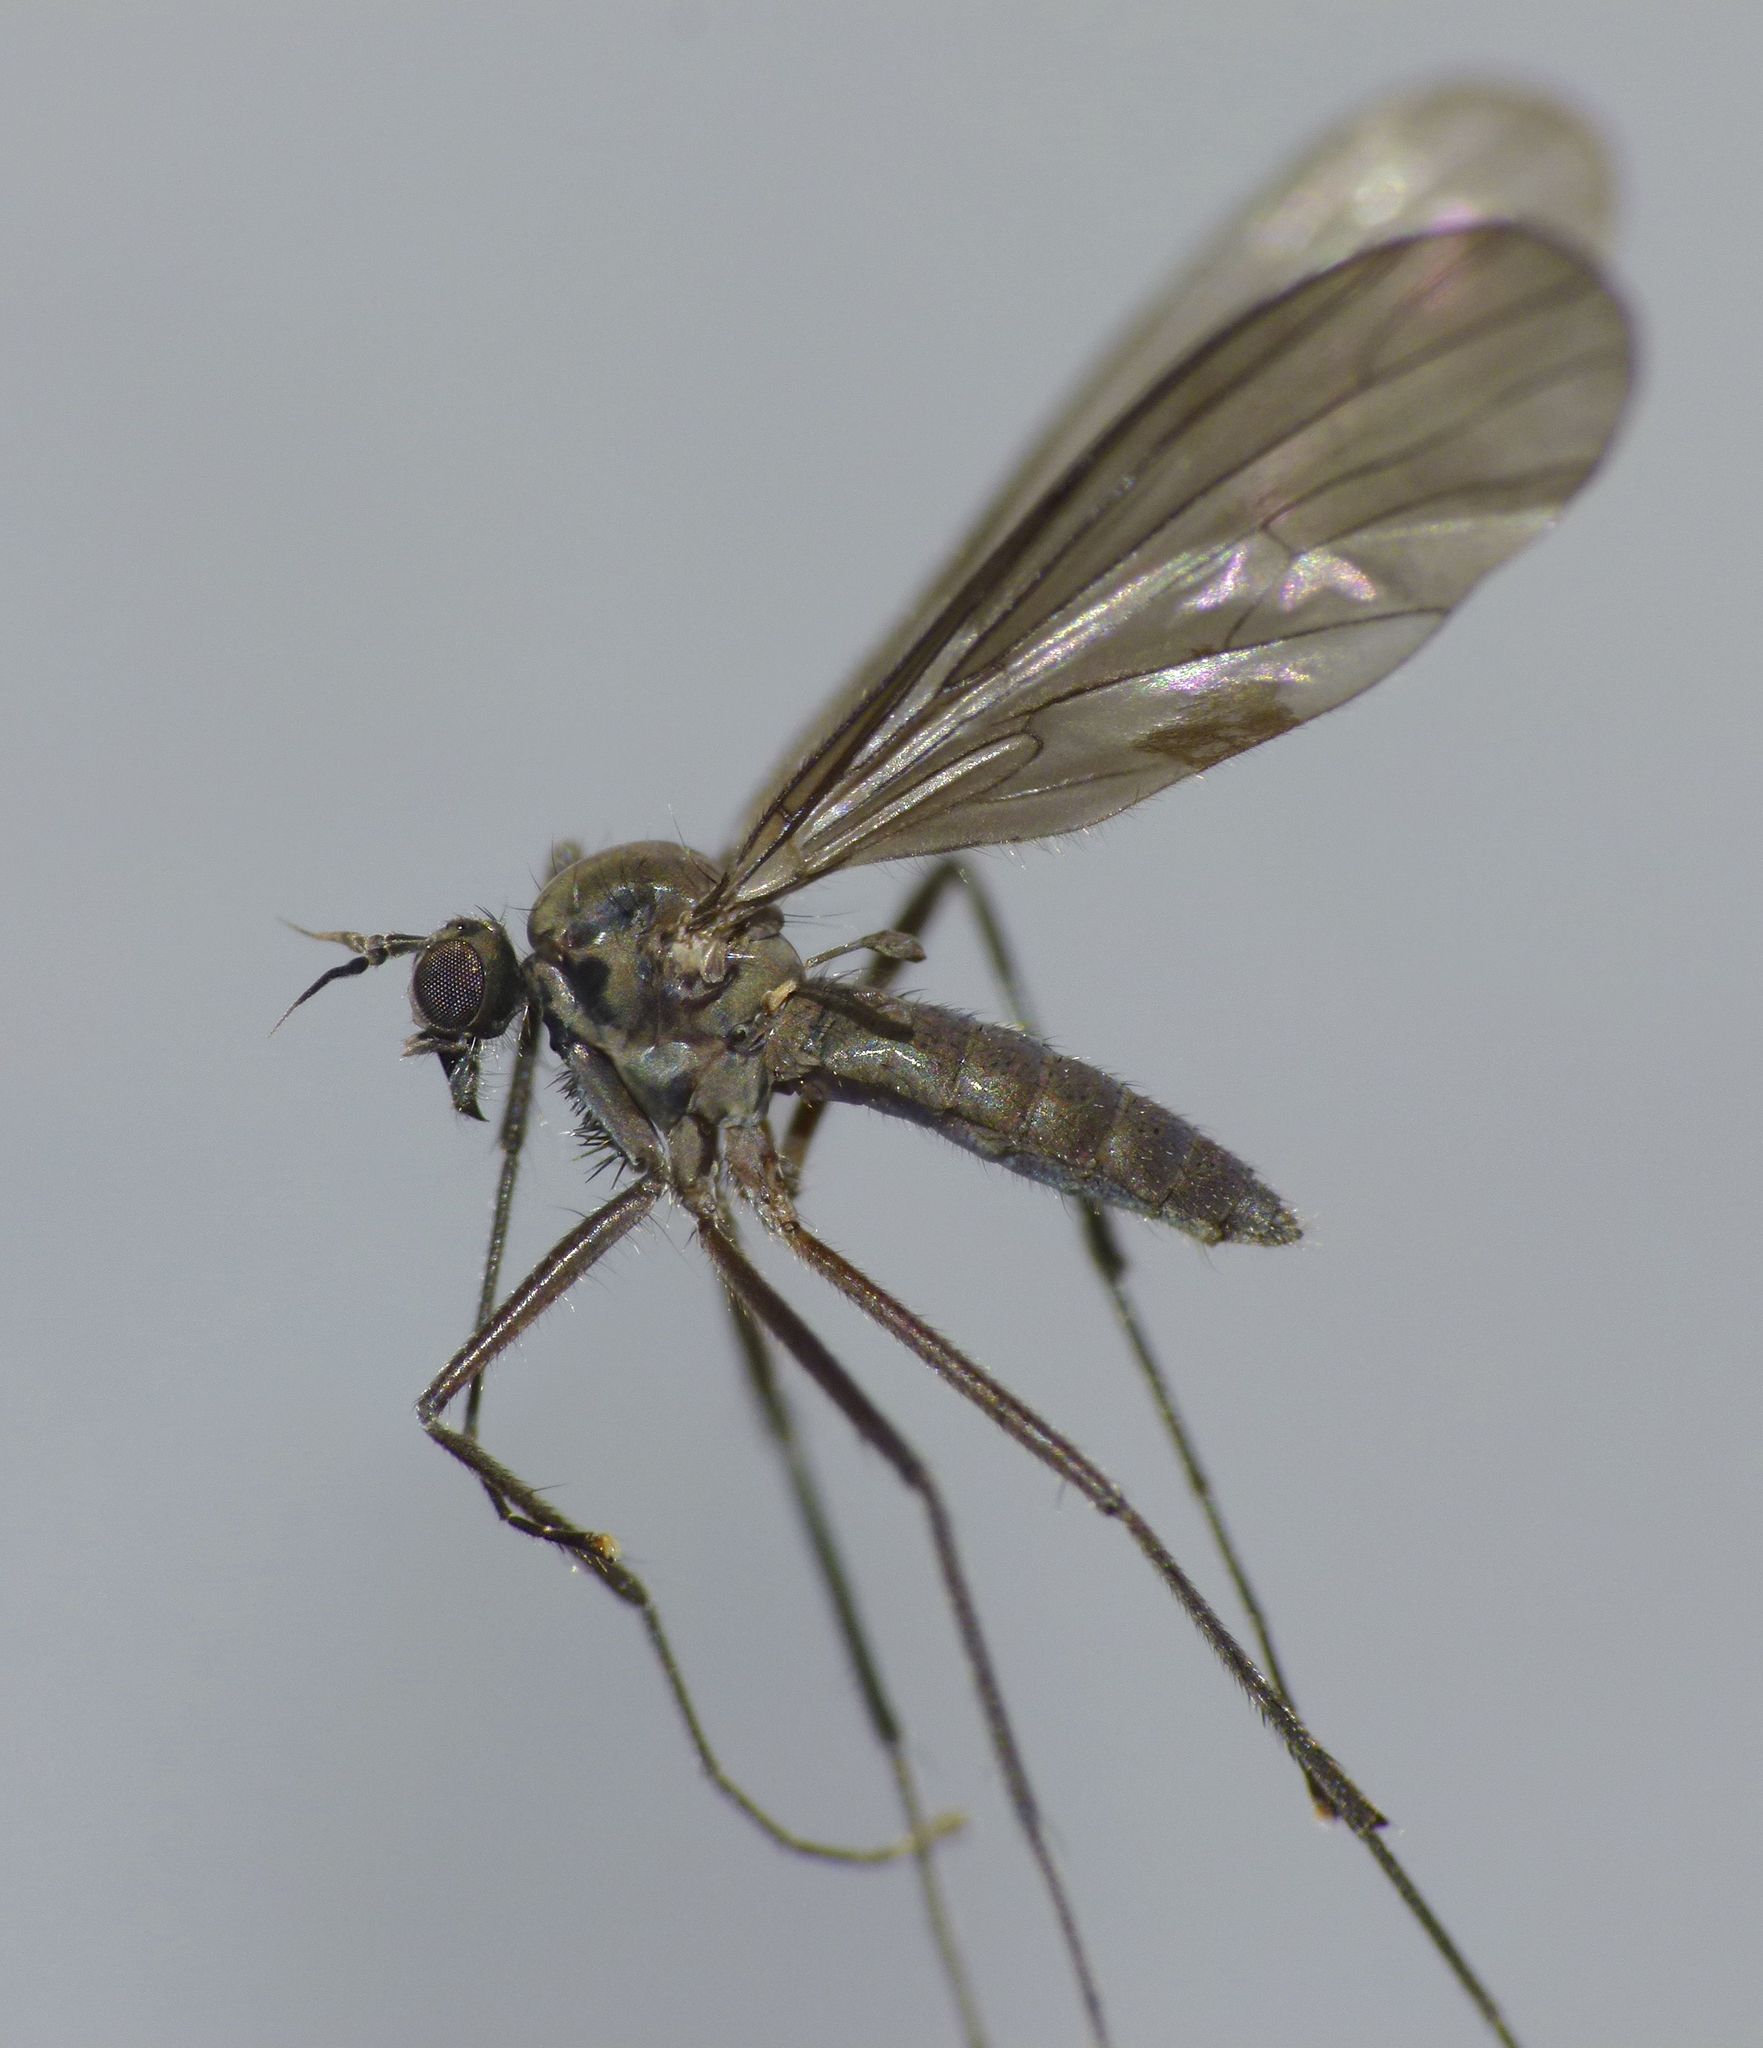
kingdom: Animalia
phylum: Arthropoda
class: Insecta
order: Diptera
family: Ragadidae
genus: Hydropeza
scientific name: Hydropeza vockerothi
